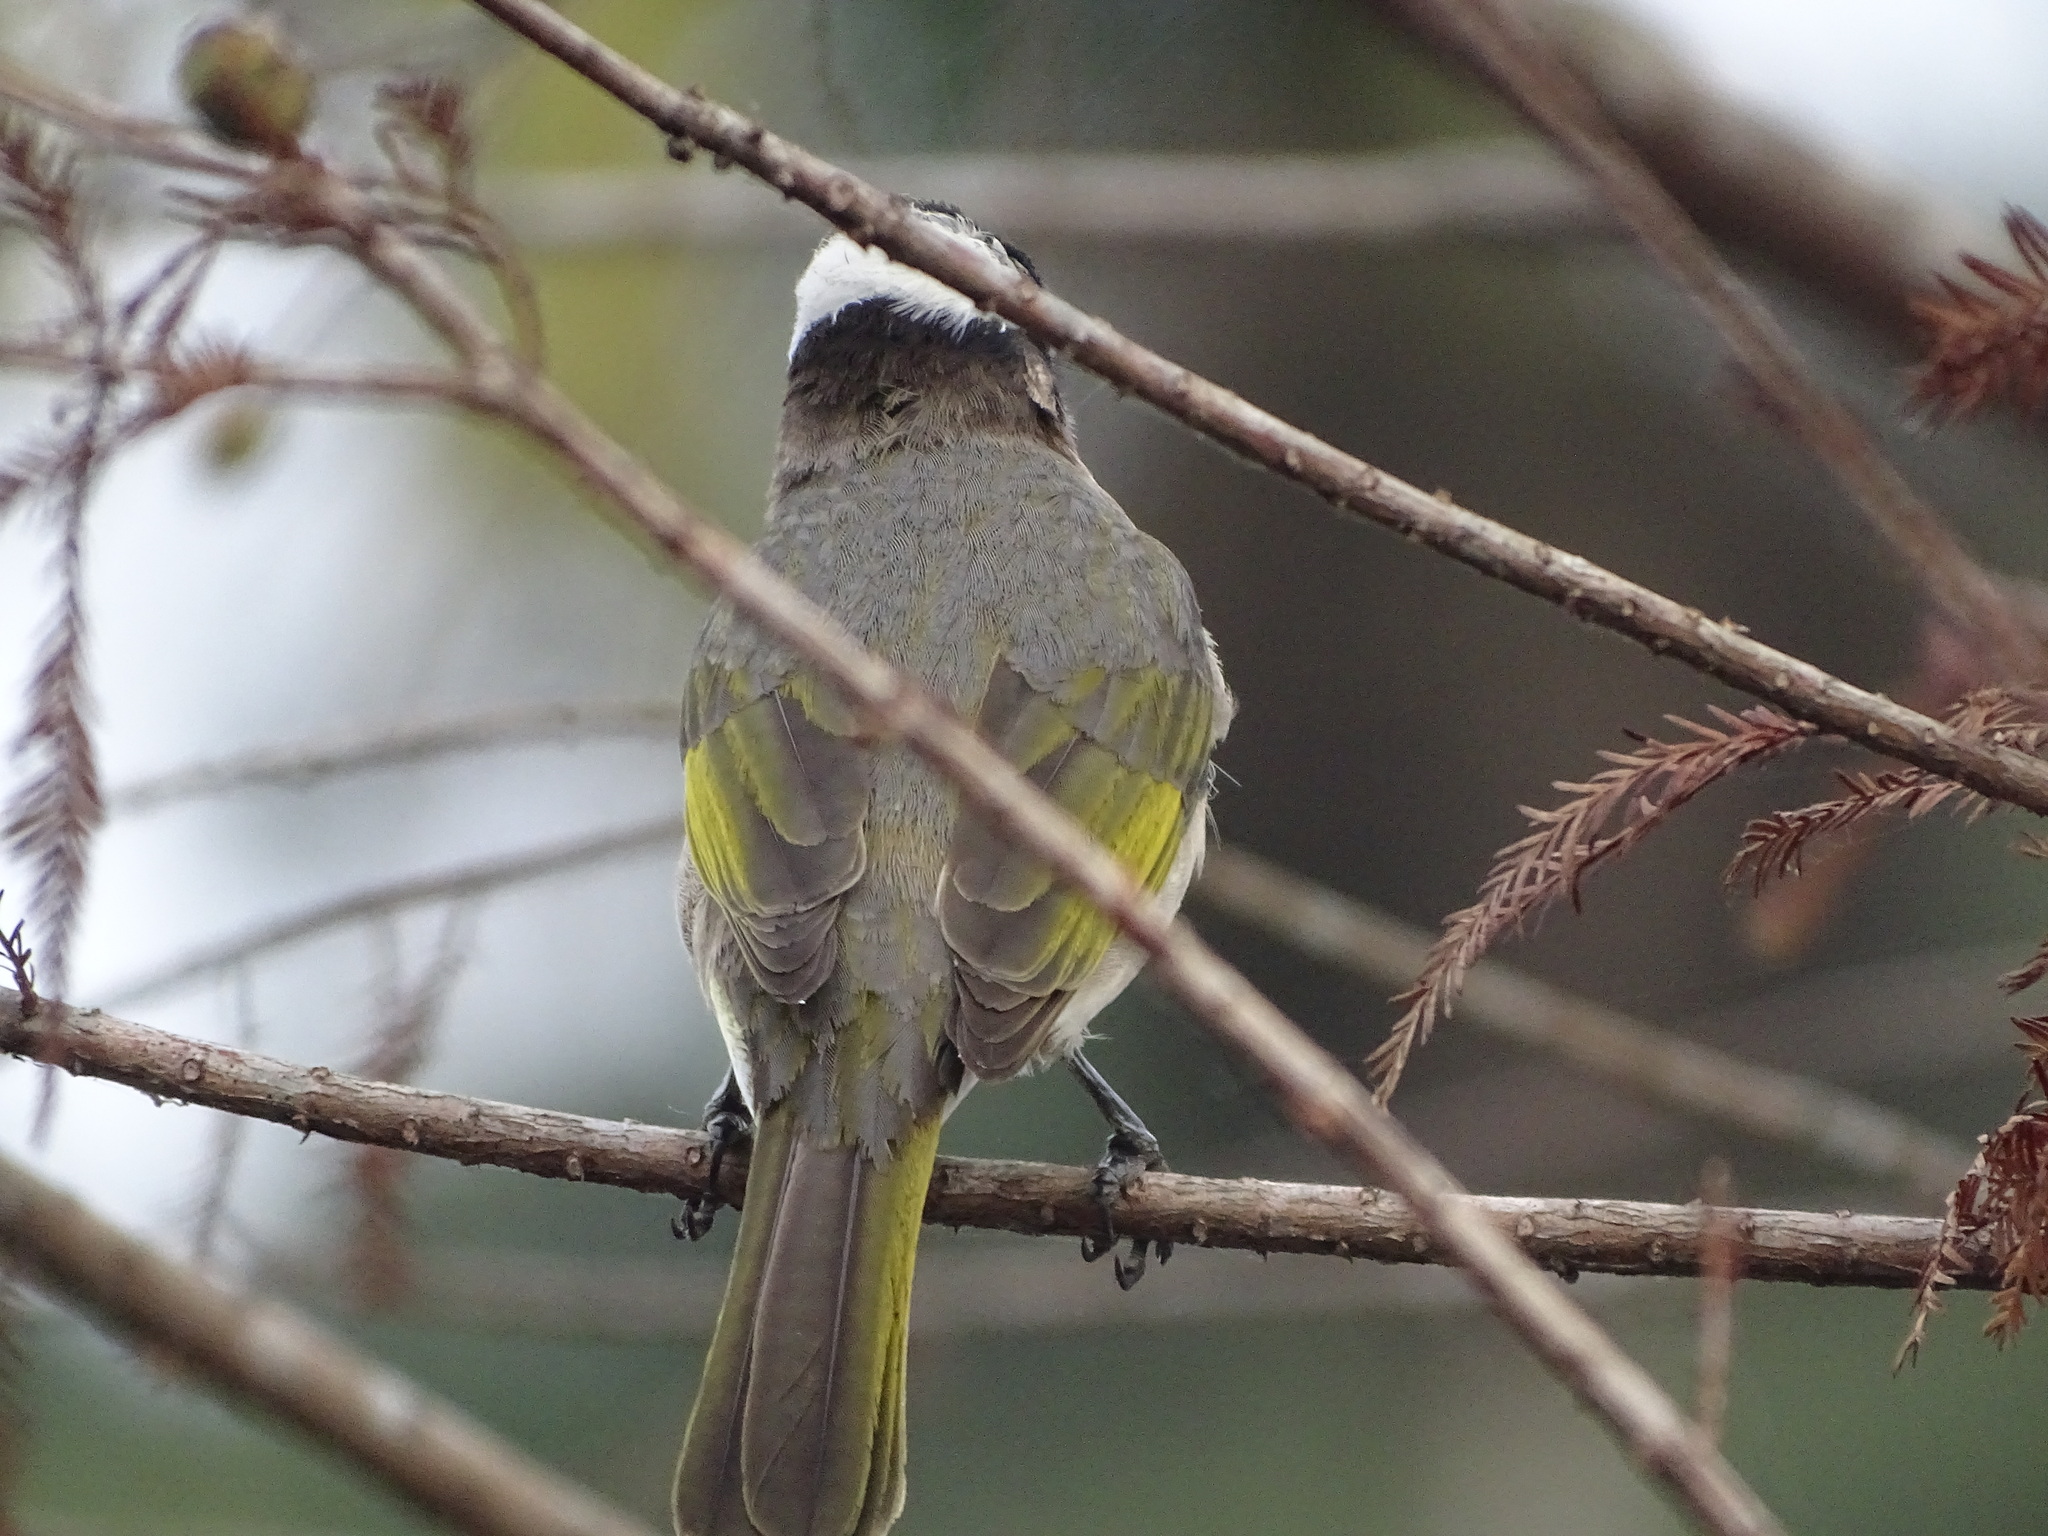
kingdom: Animalia
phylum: Chordata
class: Aves
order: Passeriformes
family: Pycnonotidae
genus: Pycnonotus
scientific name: Pycnonotus sinensis
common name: Light-vented bulbul
